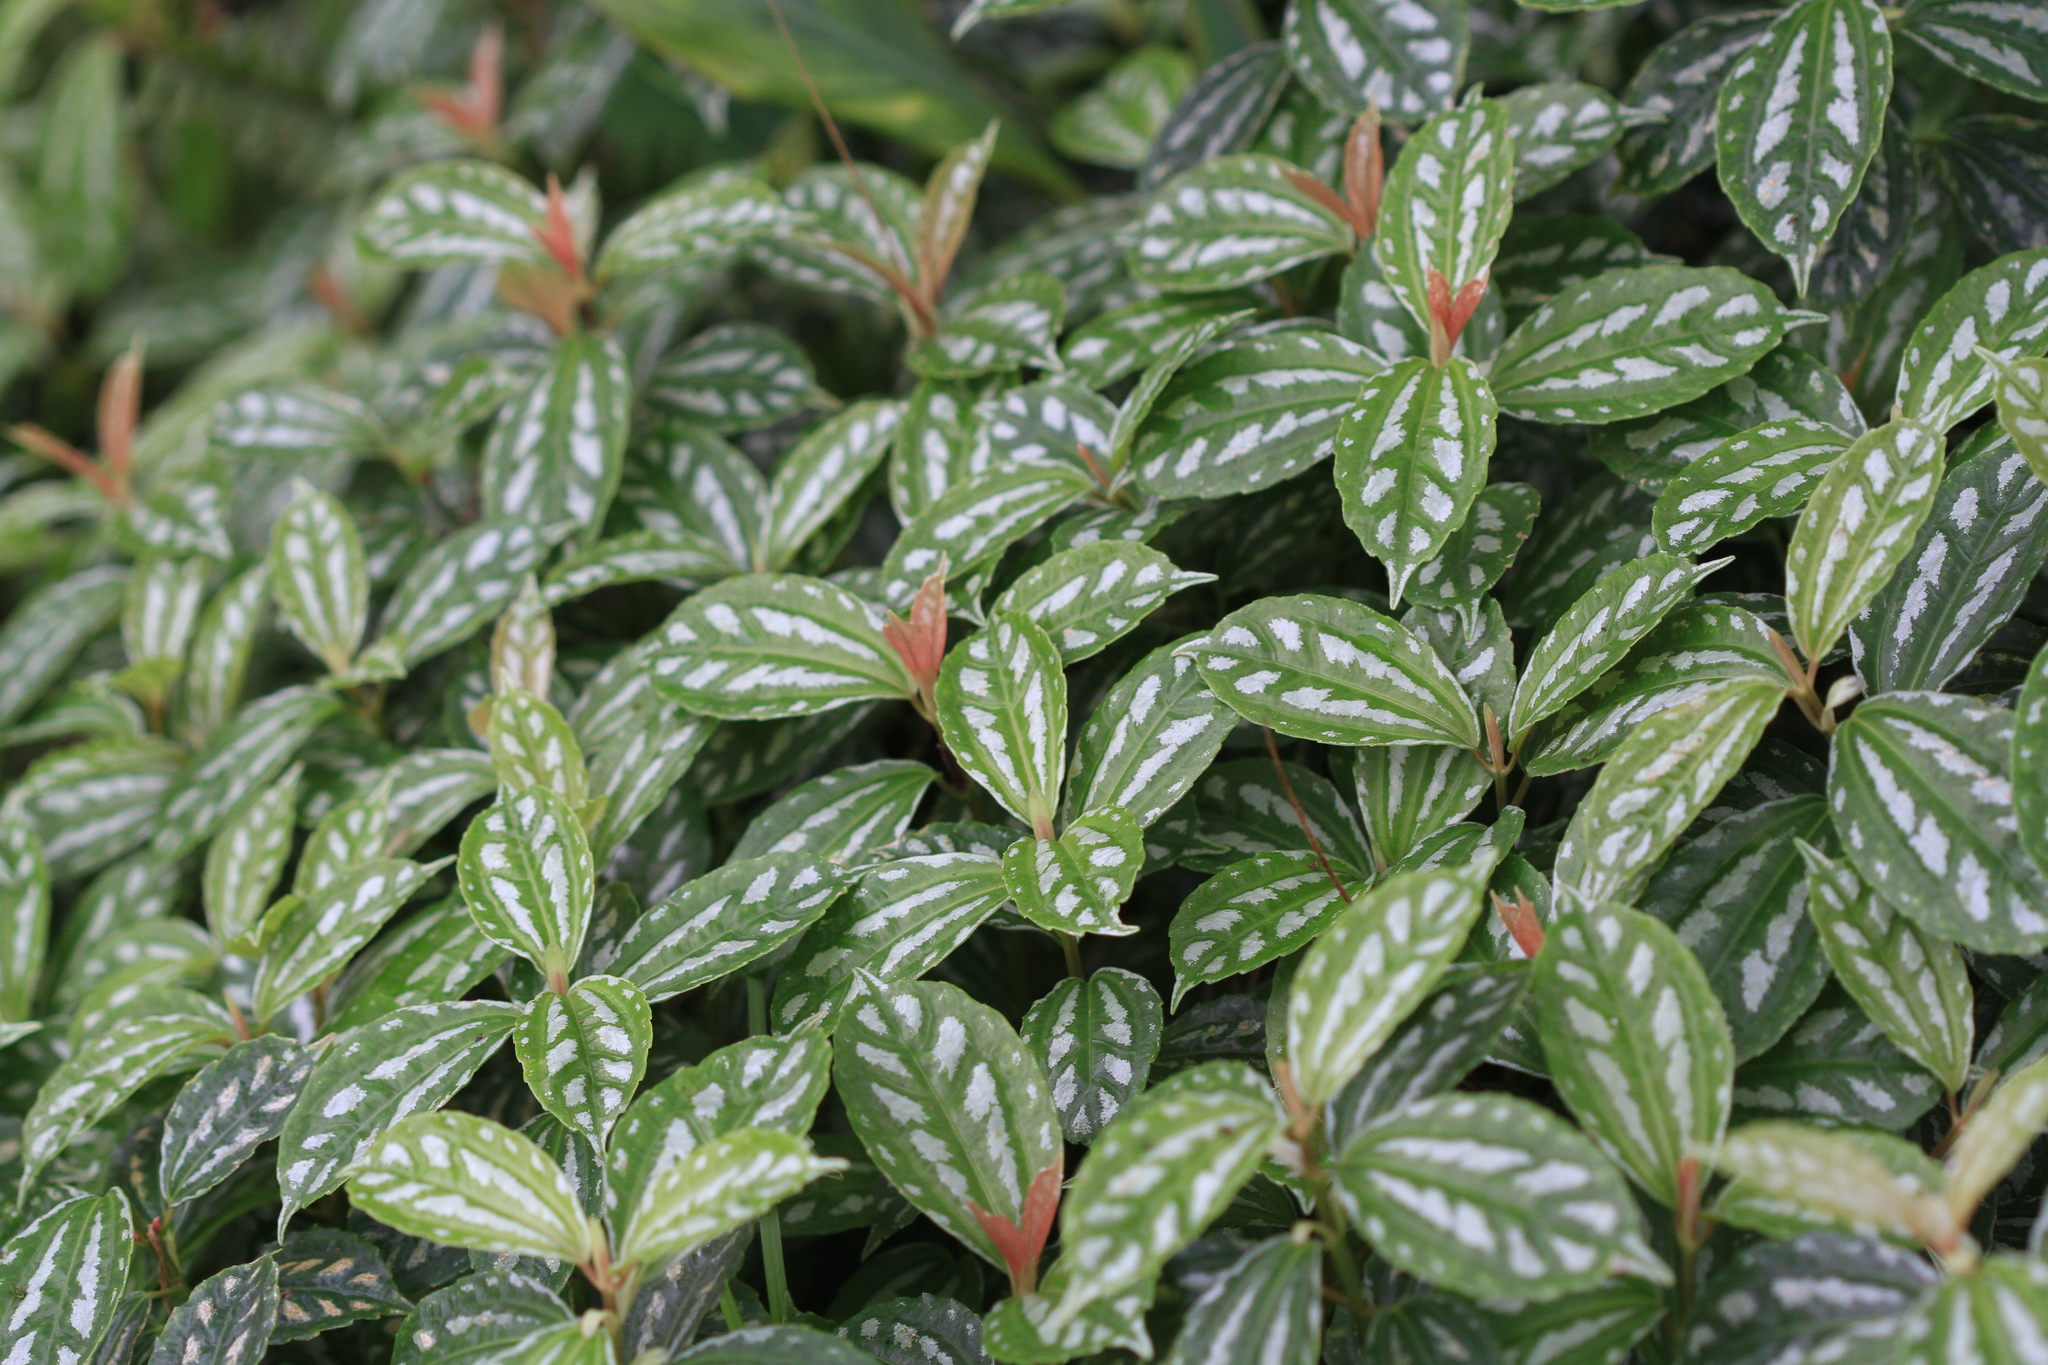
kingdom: Plantae
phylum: Tracheophyta
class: Magnoliopsida
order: Rosales
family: Urticaceae
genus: Pilea
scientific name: Pilea cadierei
